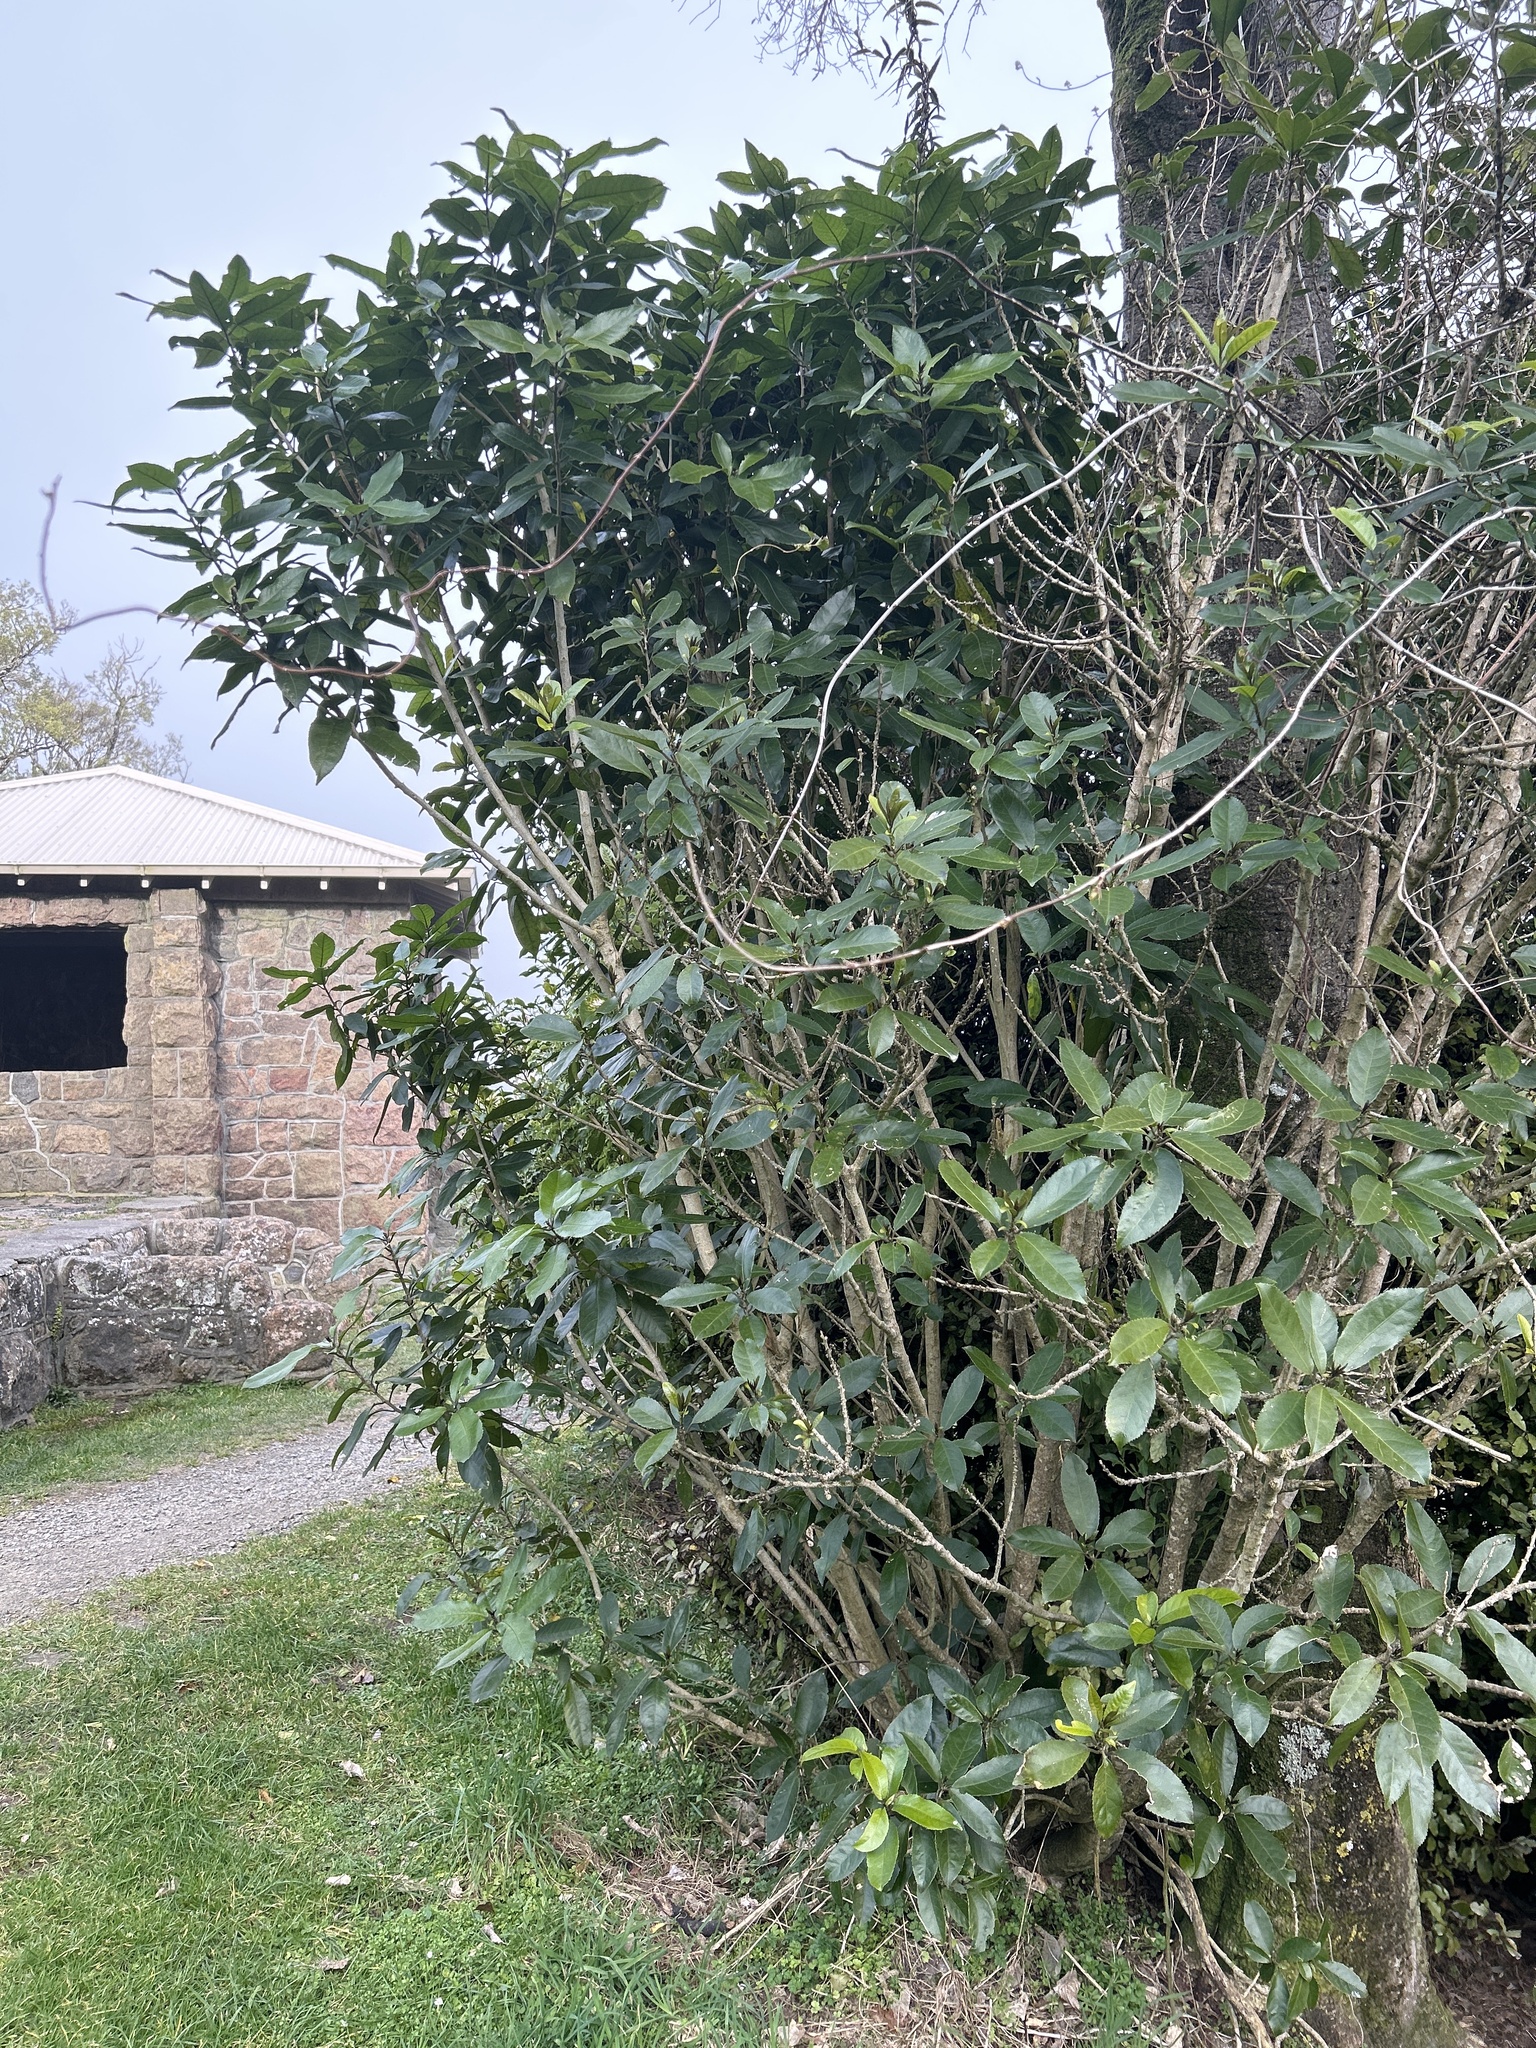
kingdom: Plantae
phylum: Tracheophyta
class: Magnoliopsida
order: Malpighiales
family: Violaceae
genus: Melicytus
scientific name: Melicytus ramiflorus
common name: Mahoe
